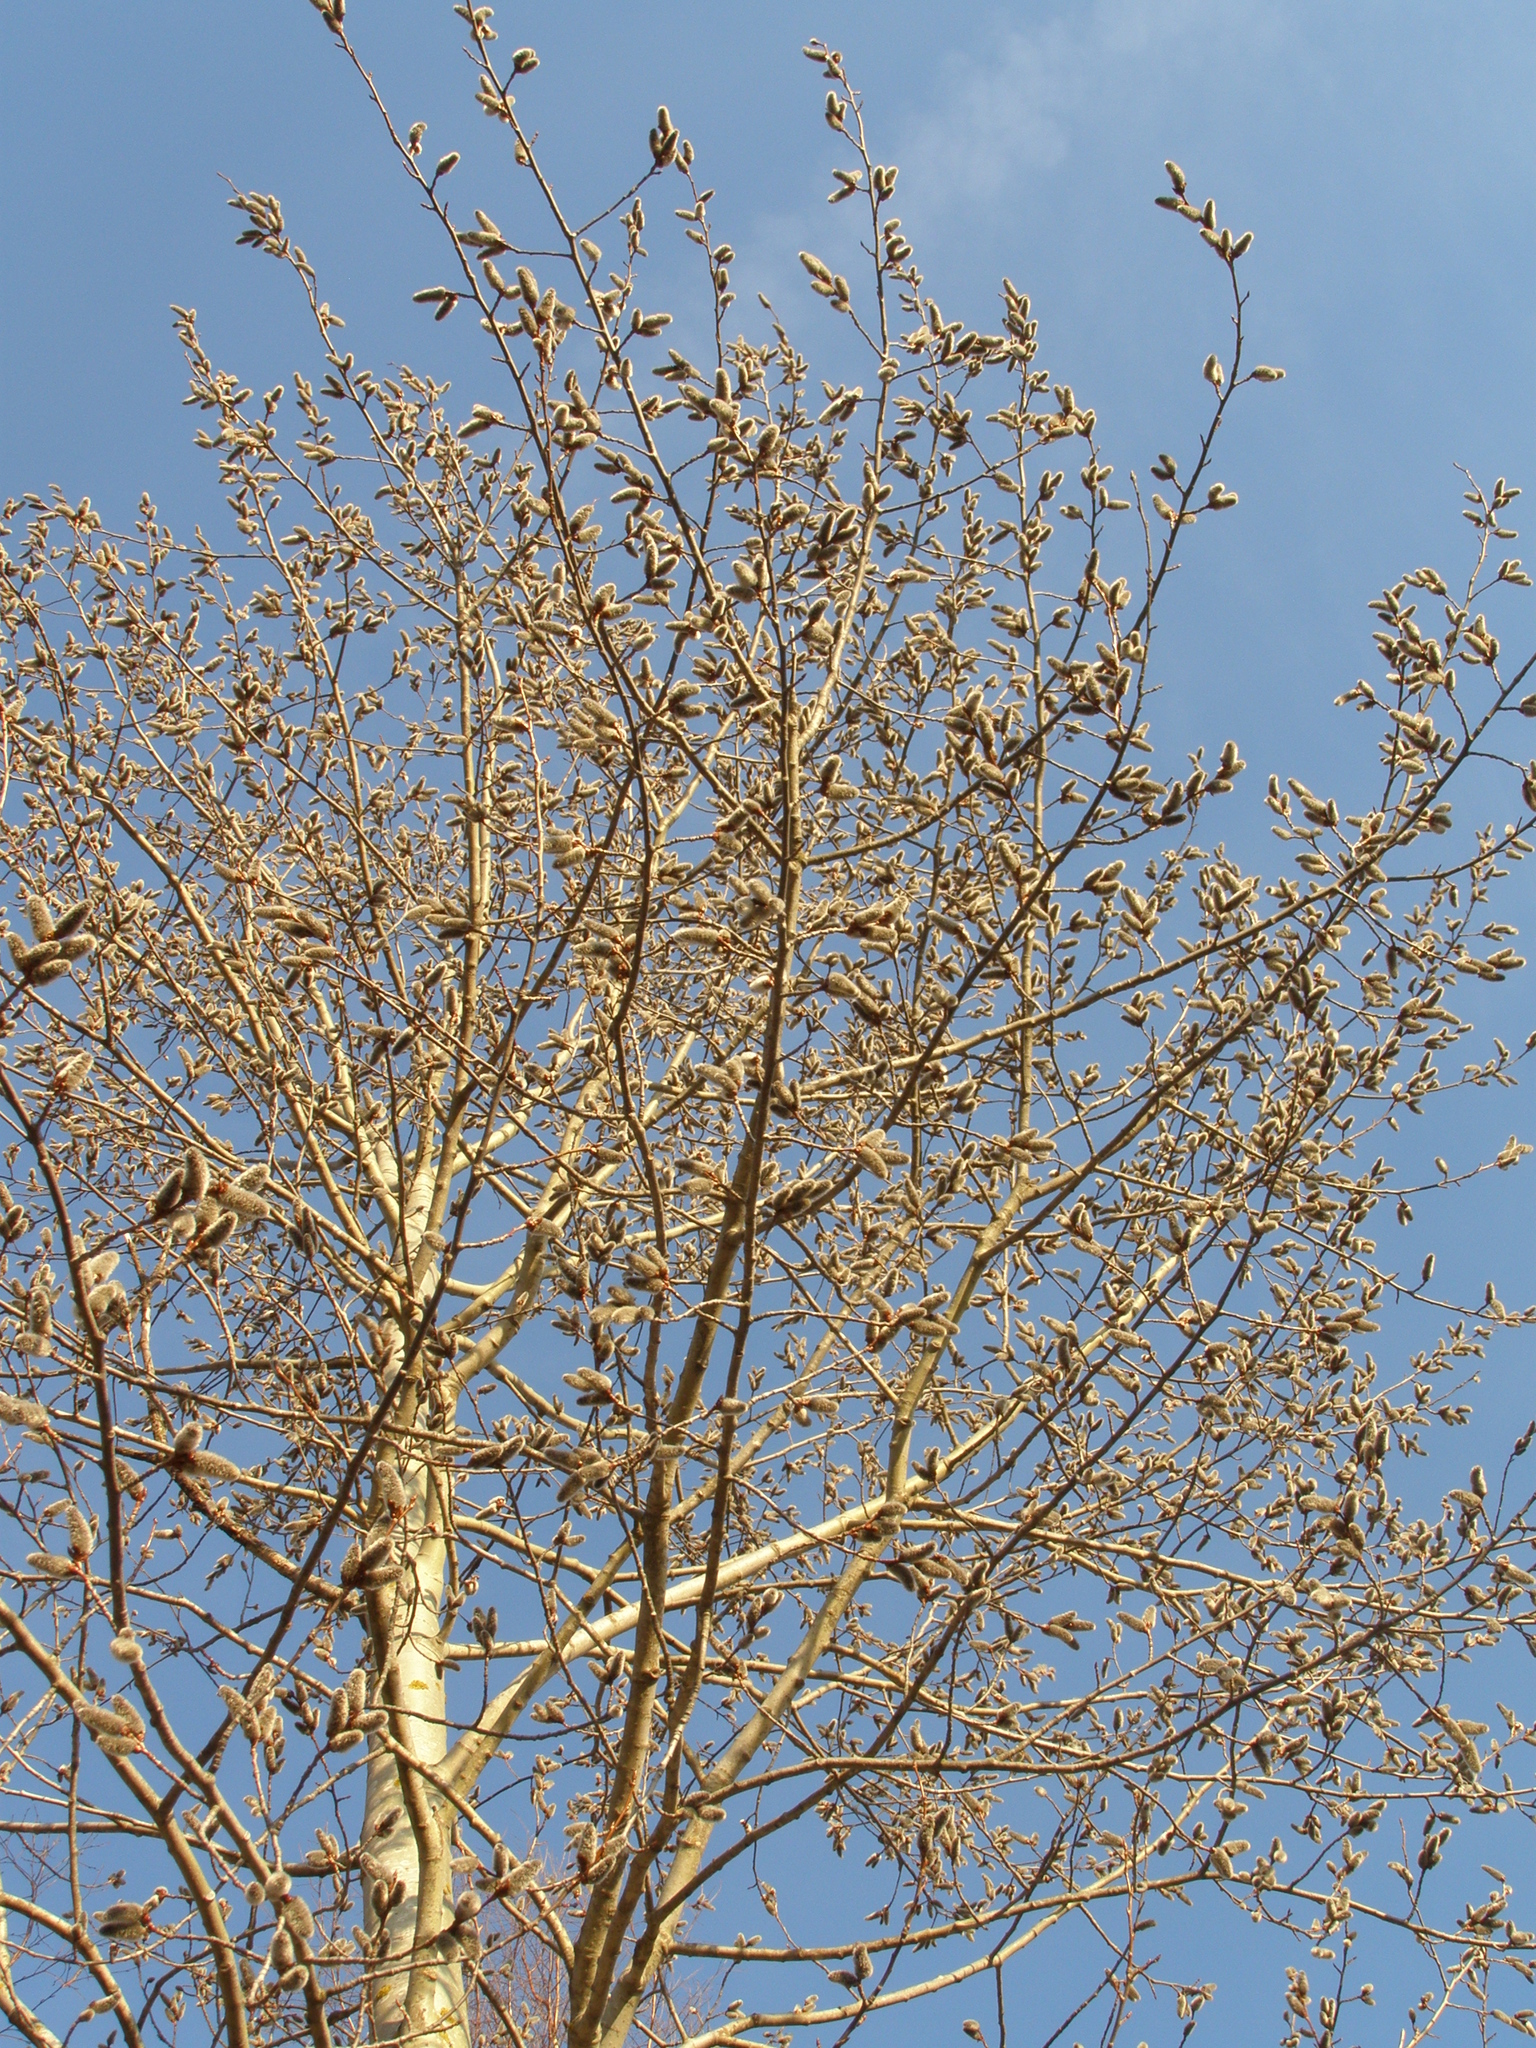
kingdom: Plantae
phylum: Tracheophyta
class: Magnoliopsida
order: Malpighiales
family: Salicaceae
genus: Populus
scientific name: Populus tremula
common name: European aspen
